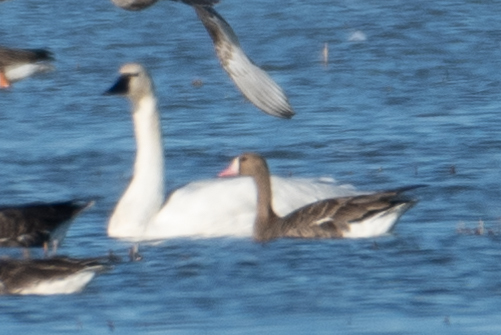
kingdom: Animalia
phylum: Chordata
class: Aves
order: Anseriformes
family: Anatidae
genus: Cygnus
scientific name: Cygnus columbianus
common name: Tundra swan
